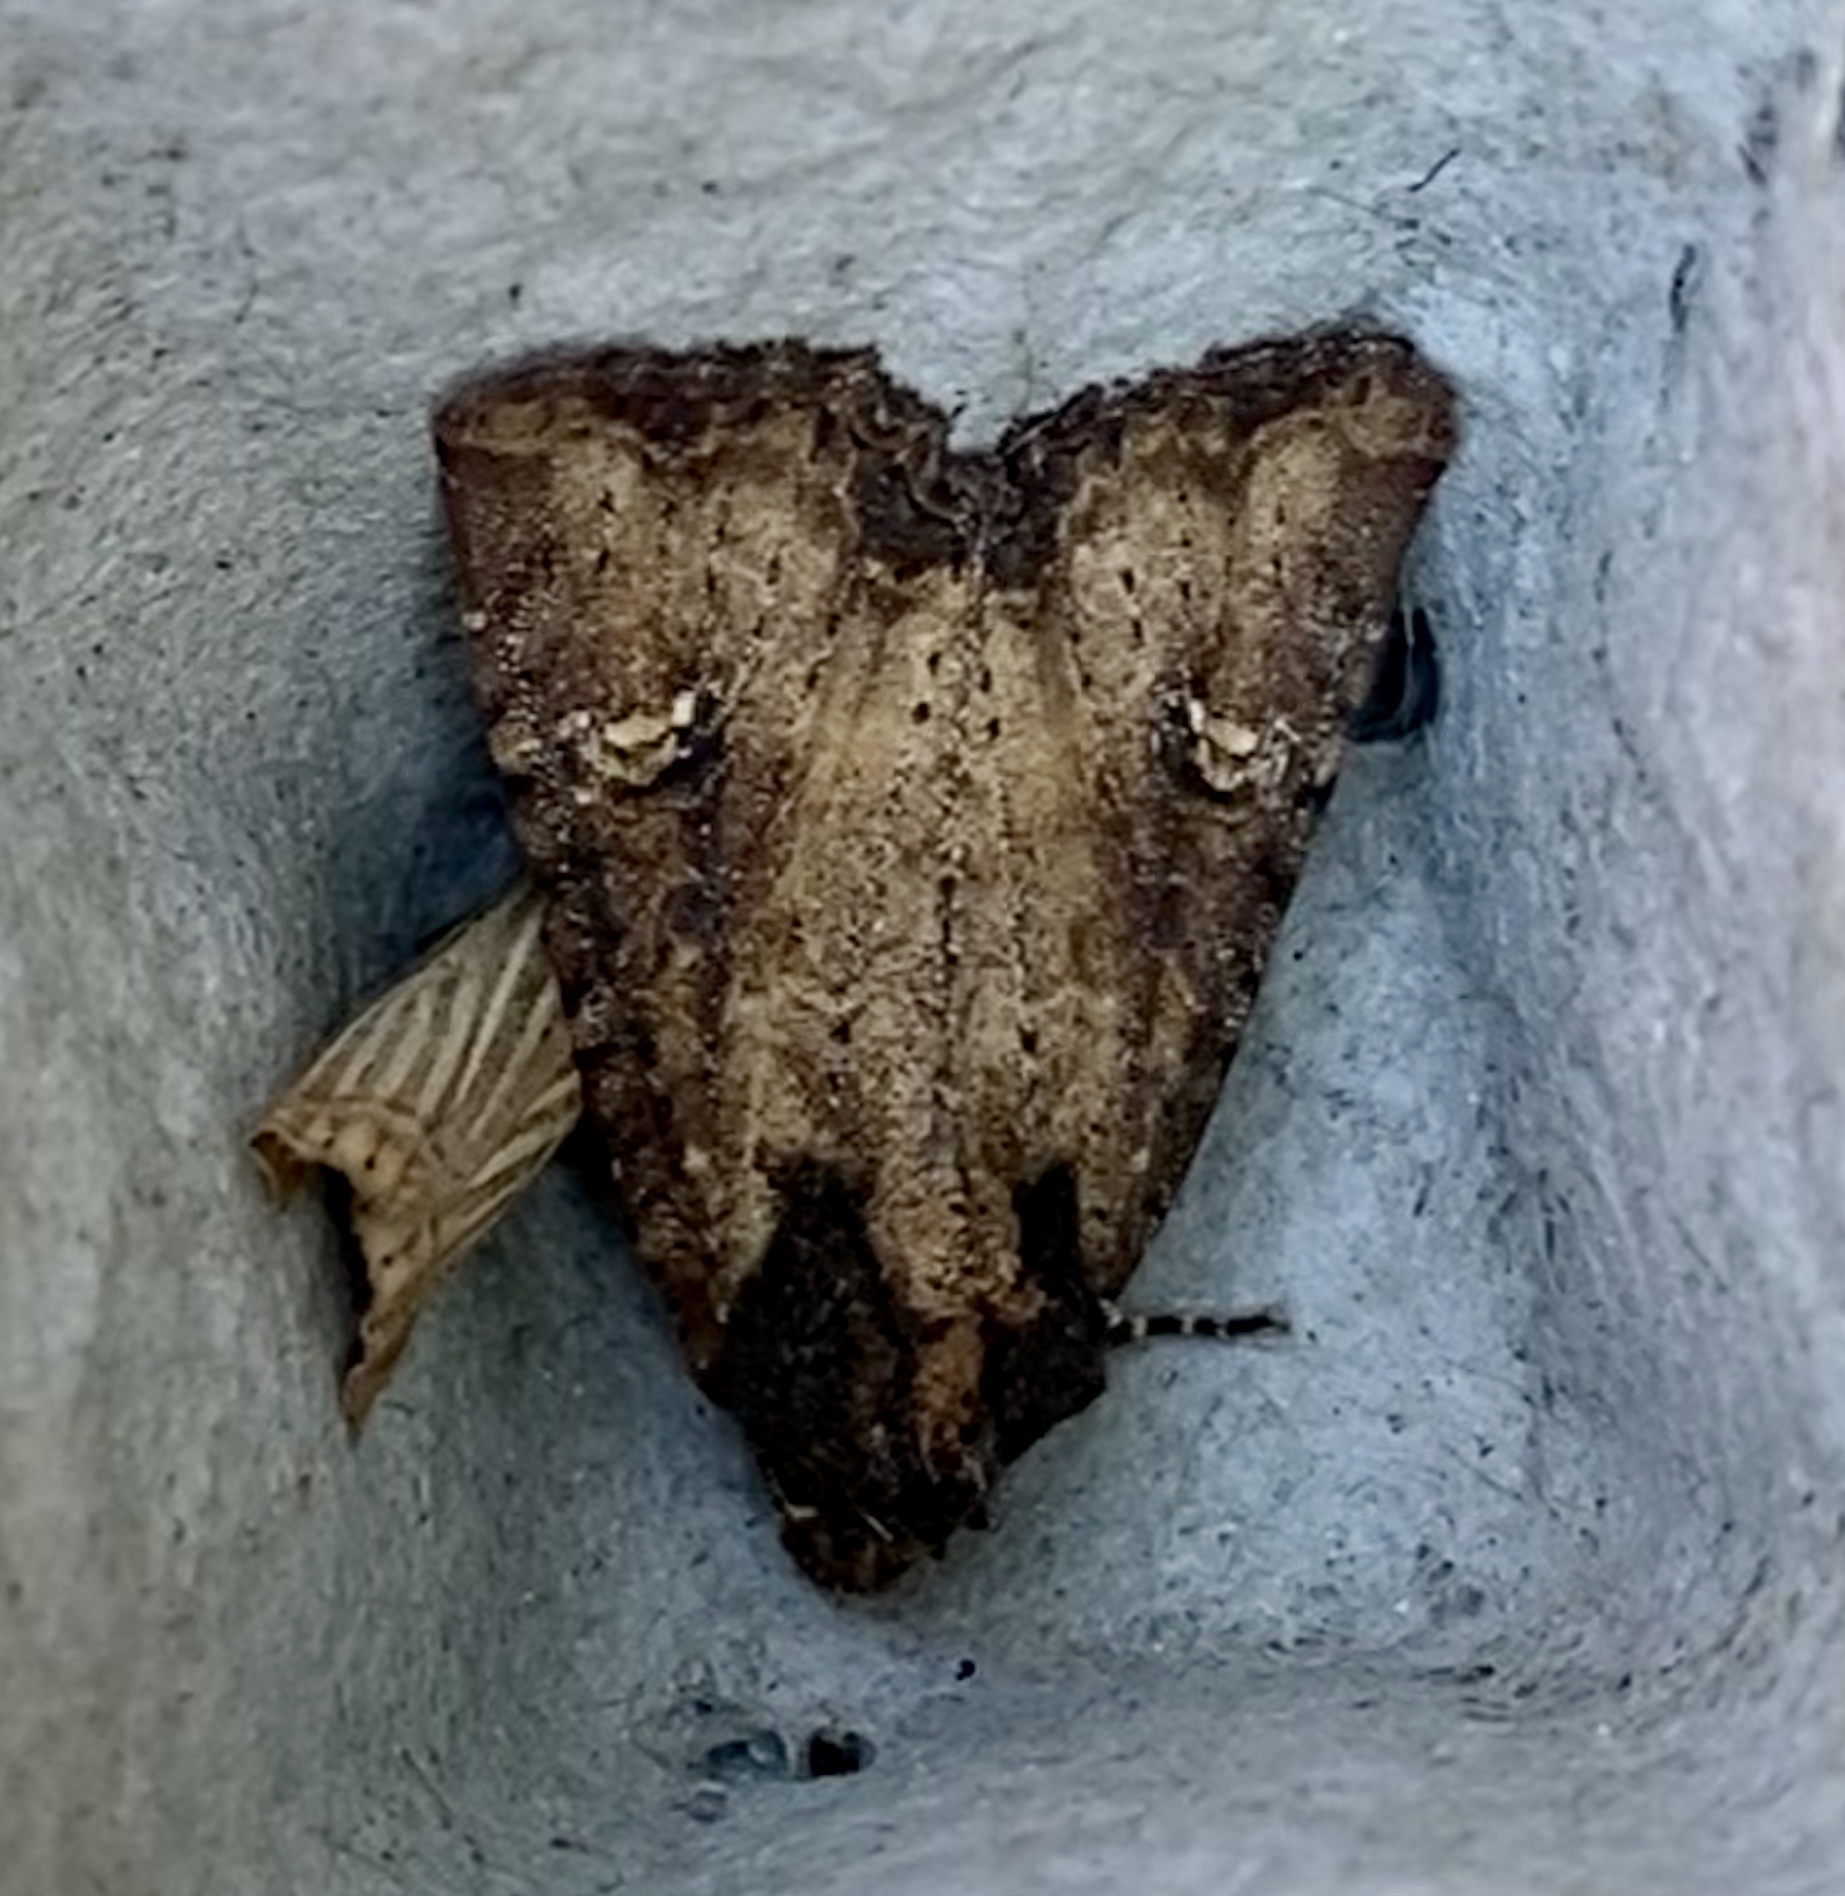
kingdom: Animalia
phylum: Arthropoda
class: Insecta
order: Lepidoptera
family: Noctuidae
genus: Mesapamea
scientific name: Mesapamea
